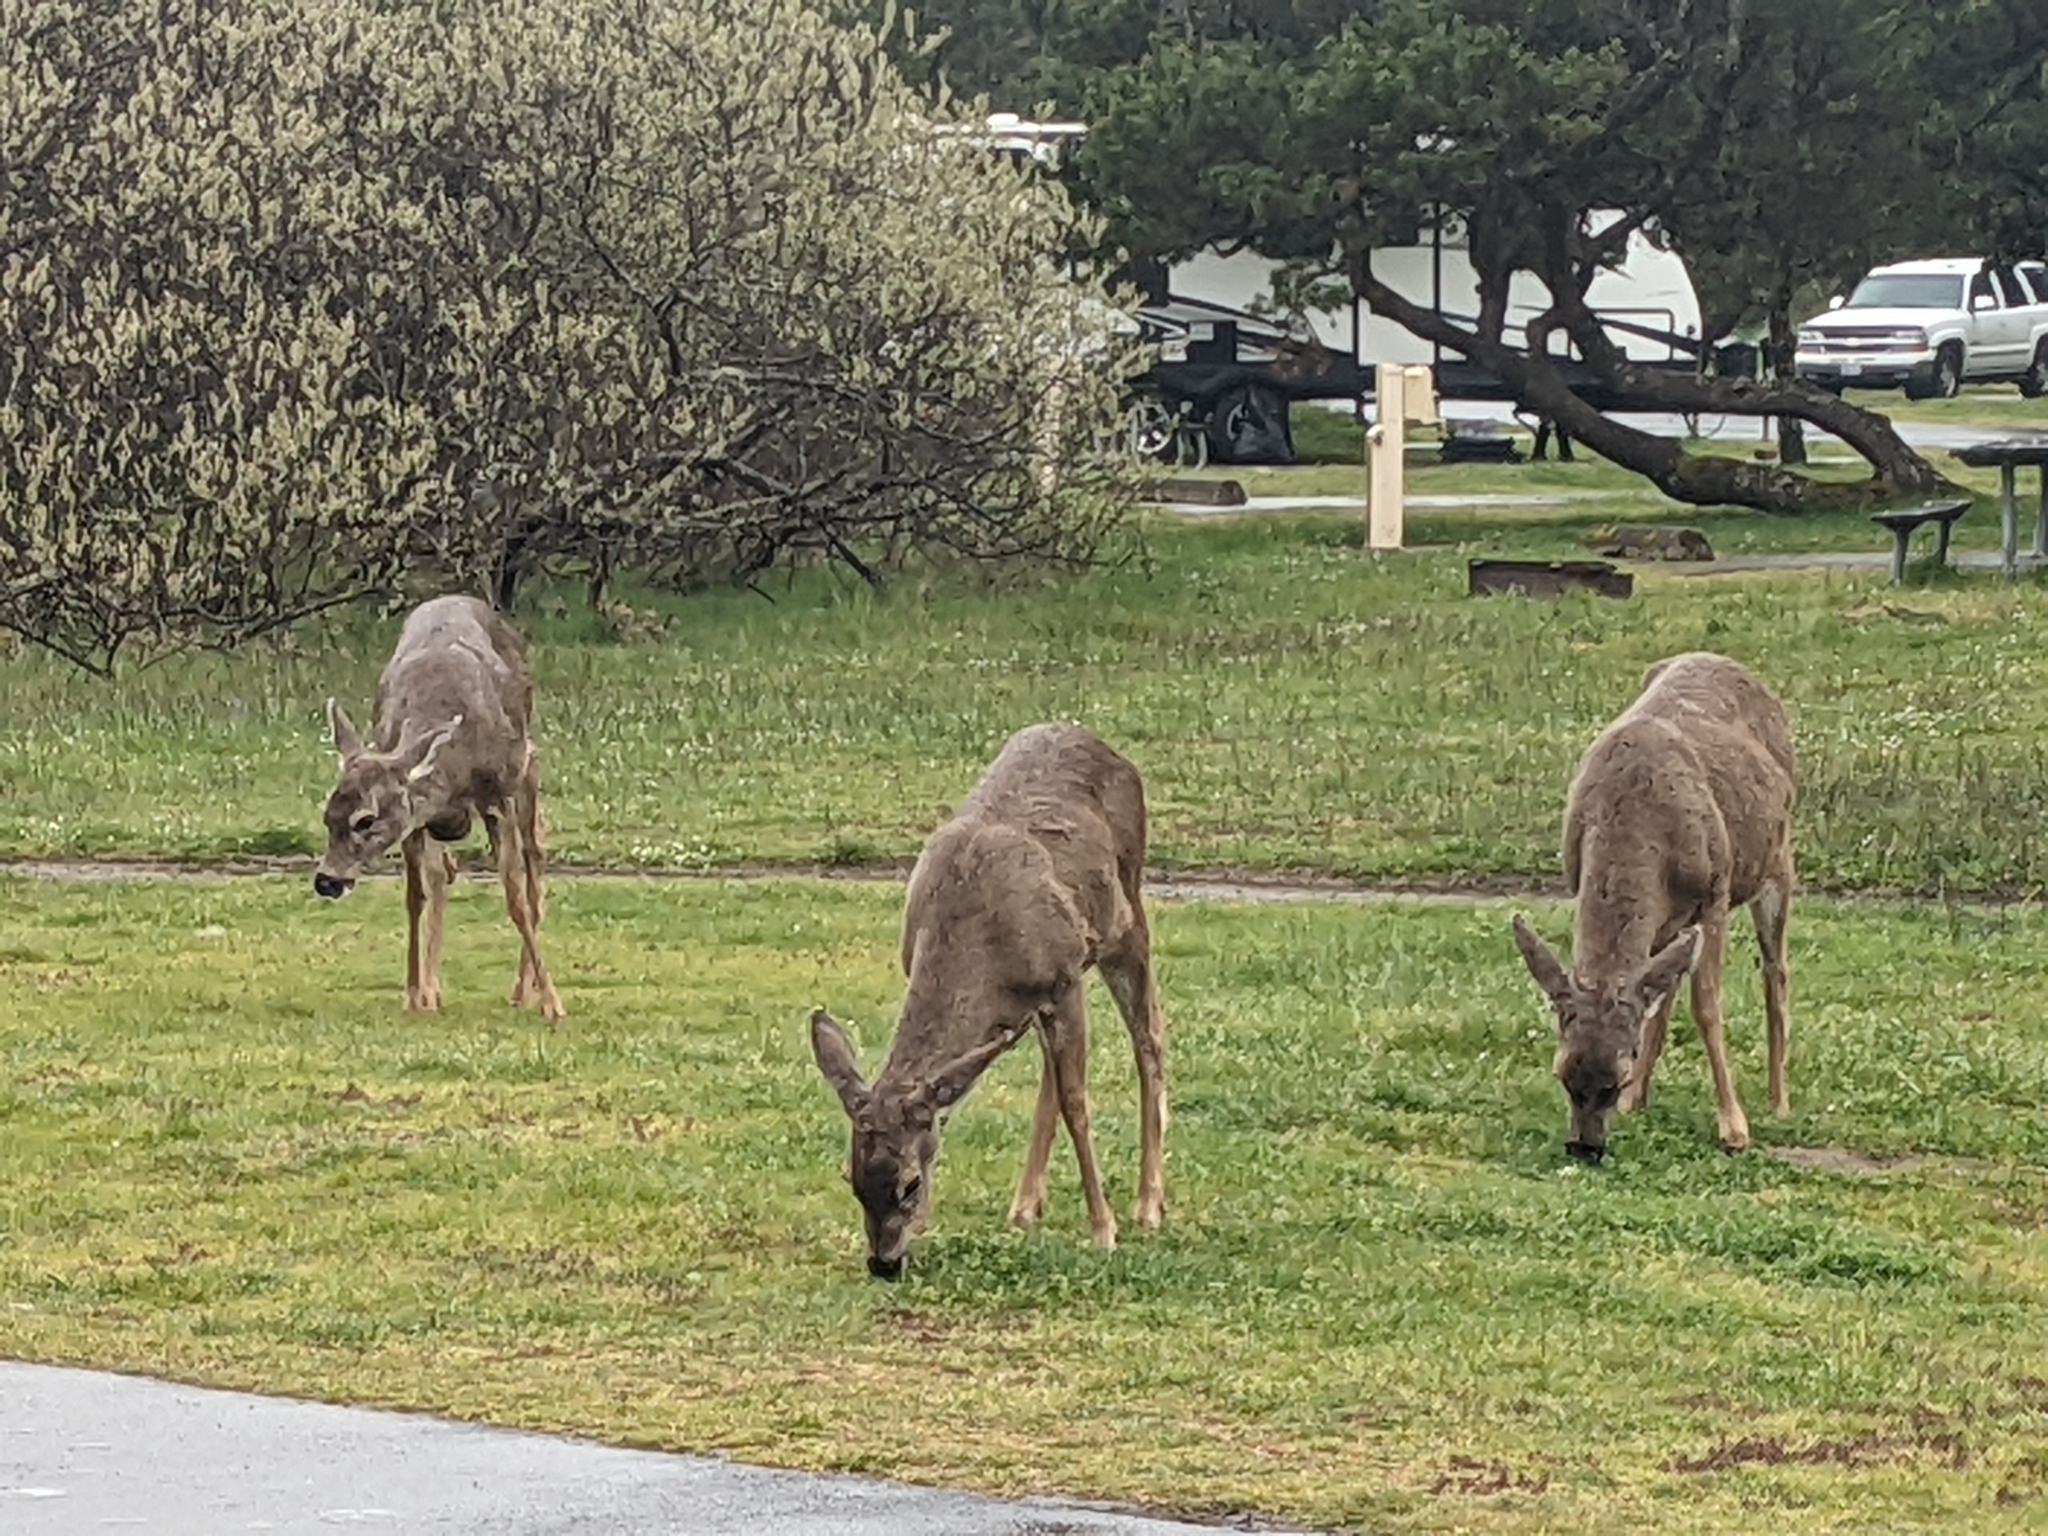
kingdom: Animalia
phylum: Chordata
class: Mammalia
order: Artiodactyla
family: Cervidae
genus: Odocoileus
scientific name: Odocoileus hemionus
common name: Mule deer
